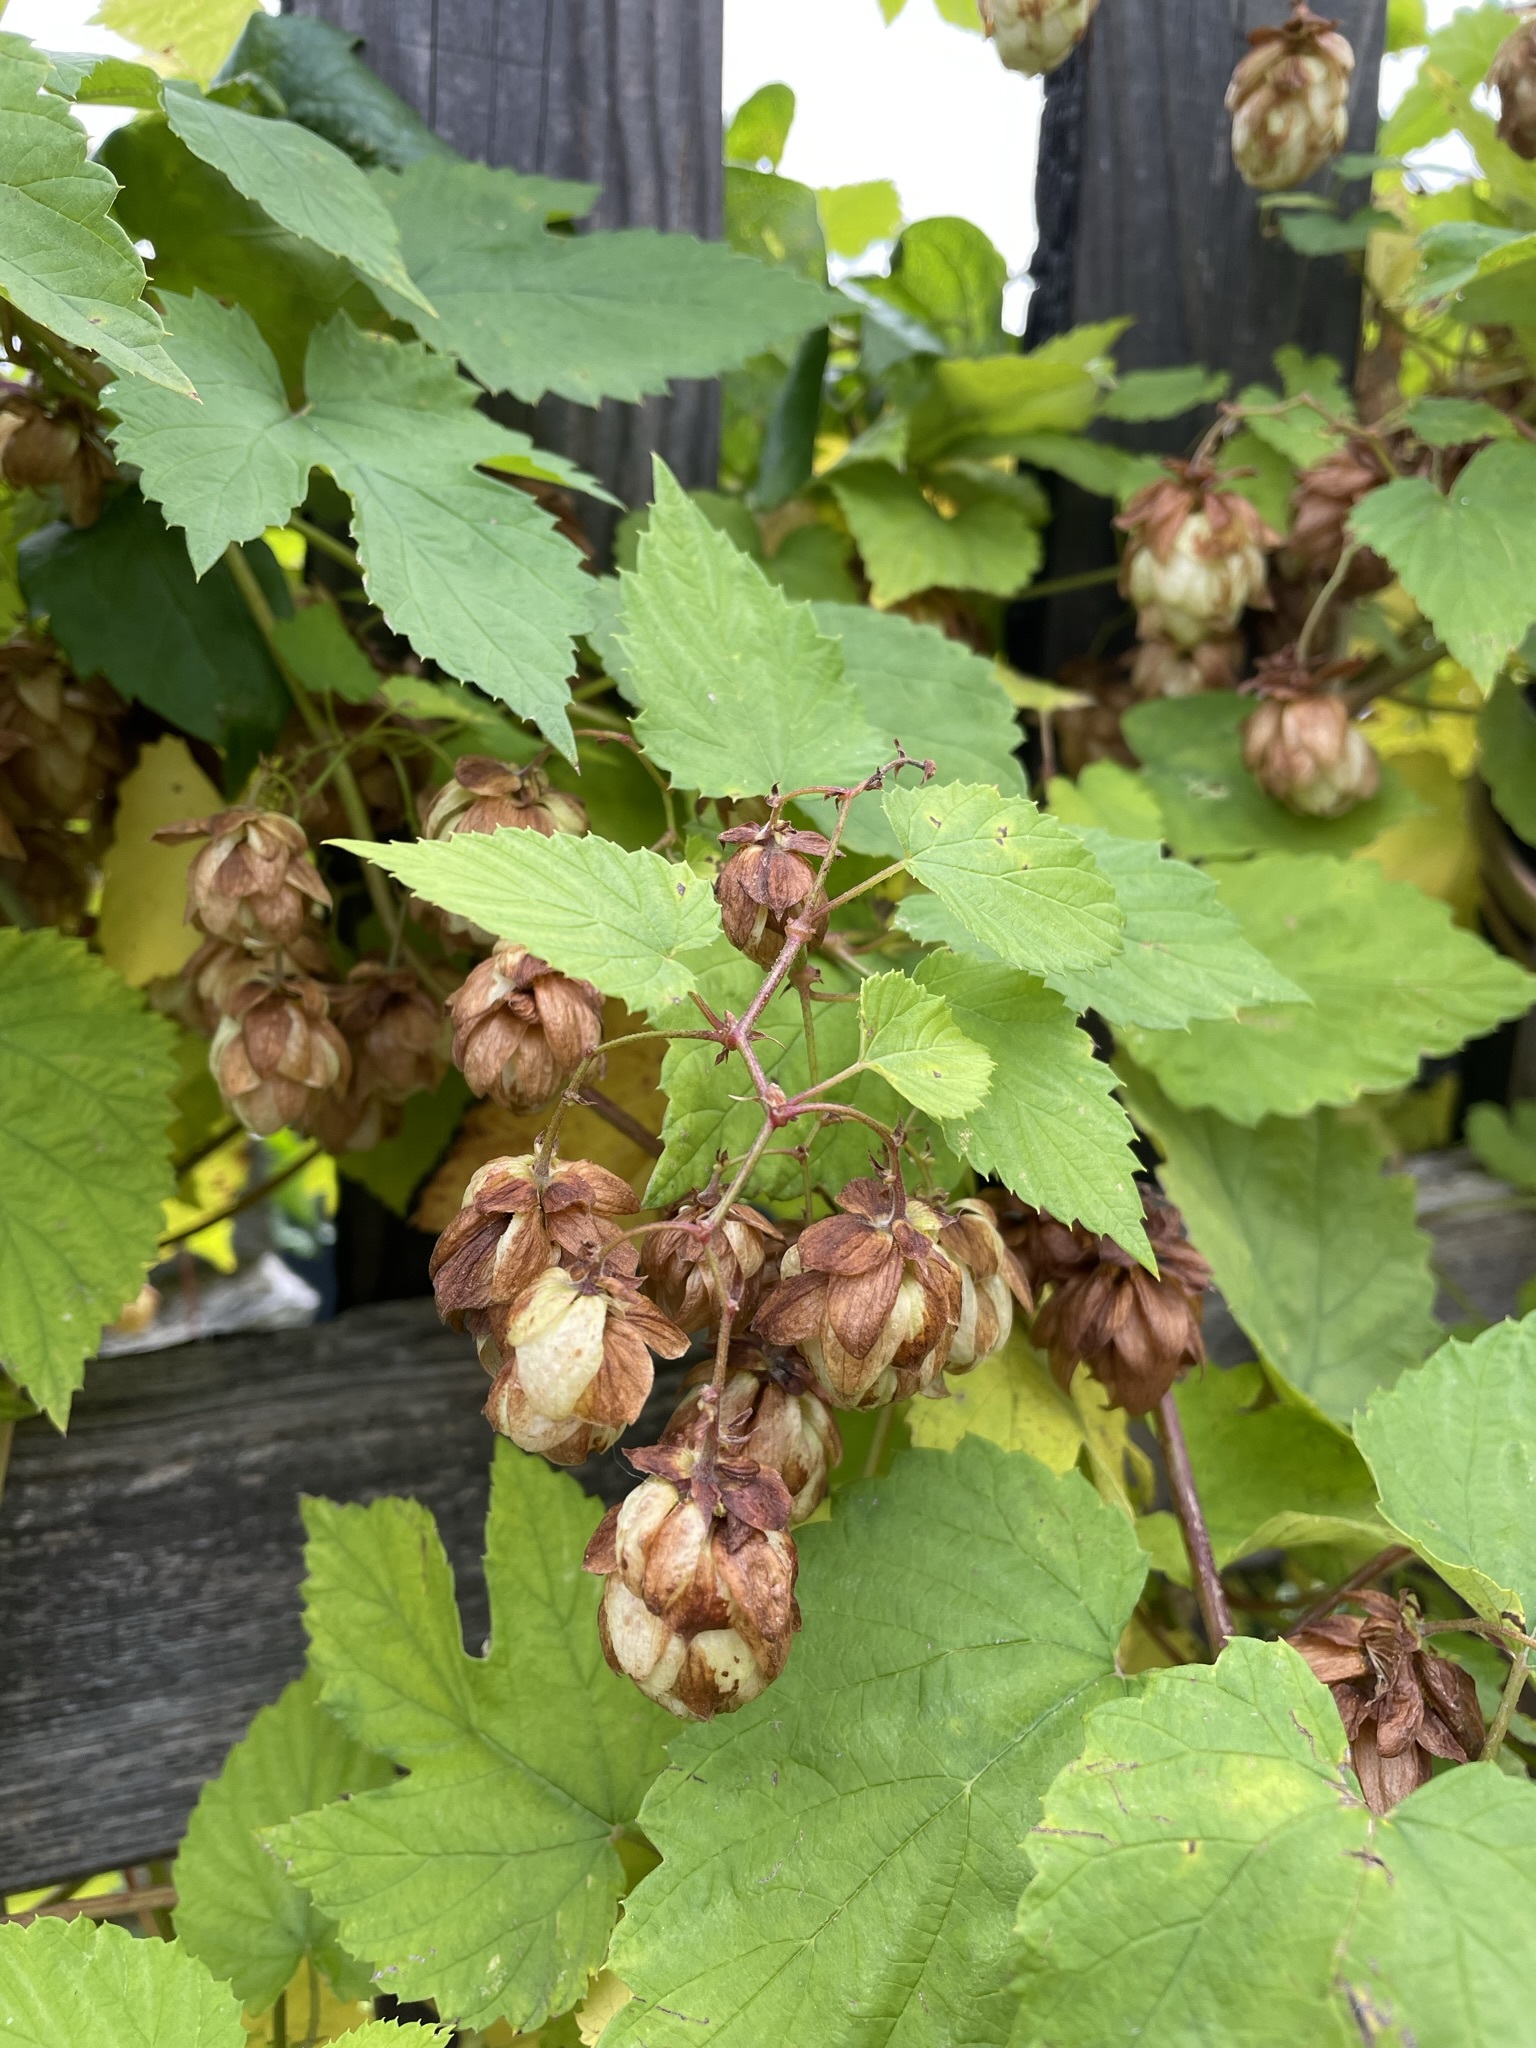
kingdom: Plantae
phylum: Tracheophyta
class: Magnoliopsida
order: Rosales
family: Cannabaceae
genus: Humulus
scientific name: Humulus lupulus
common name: Hop
